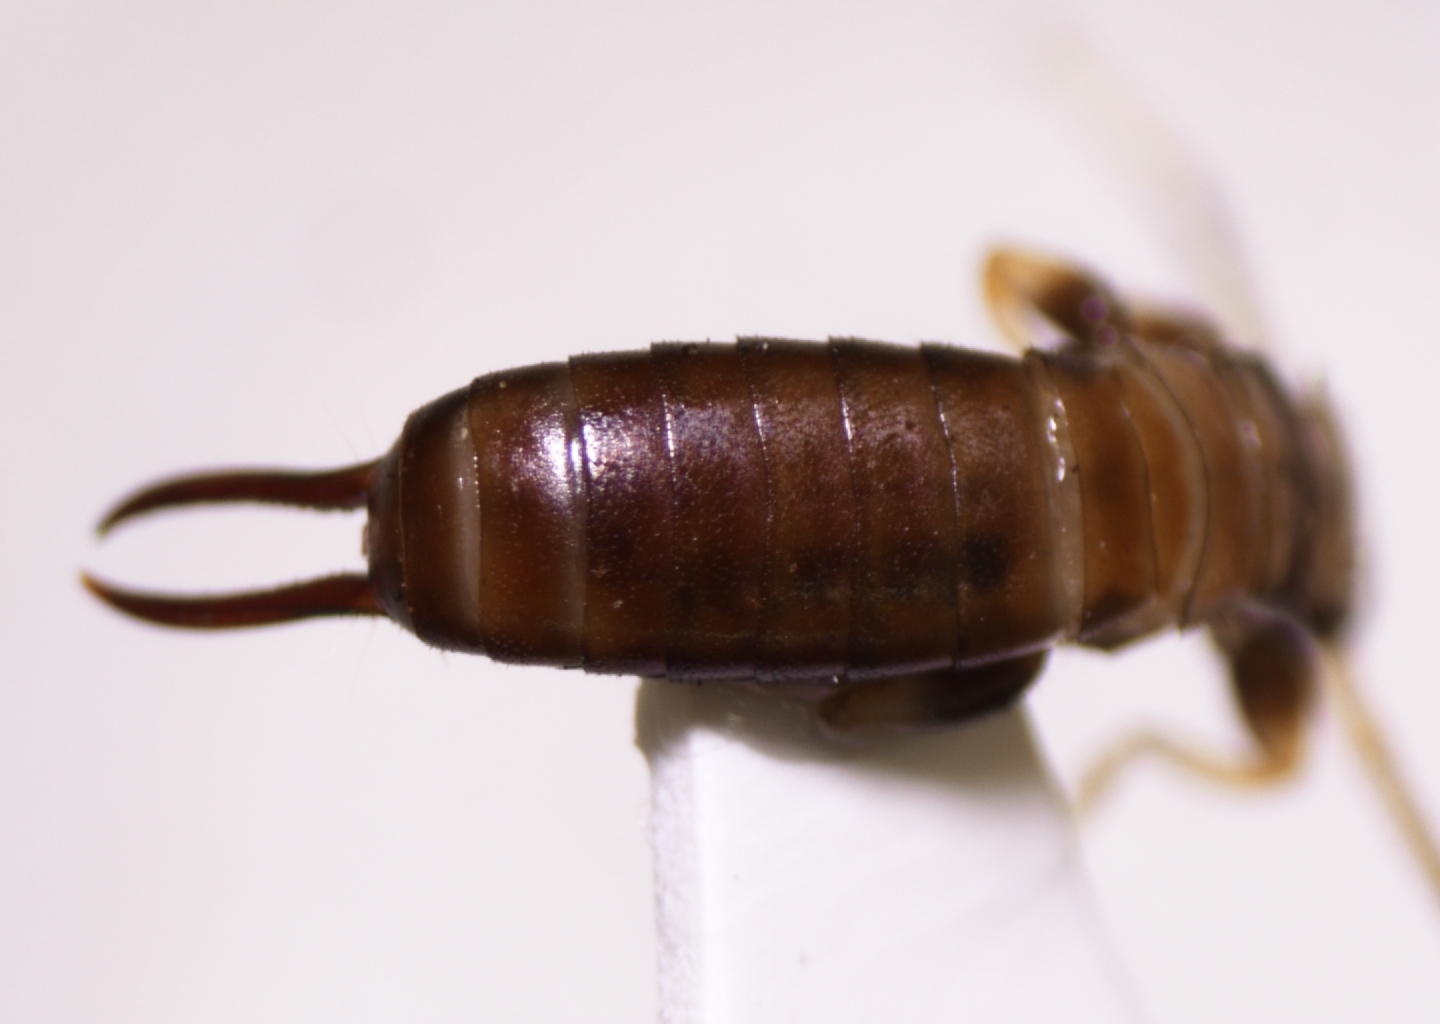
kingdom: Animalia
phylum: Arthropoda
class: Insecta
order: Dermaptera
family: Spongiphoridae
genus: Paralabella
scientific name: Paralabella curvicauda
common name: Earwig
